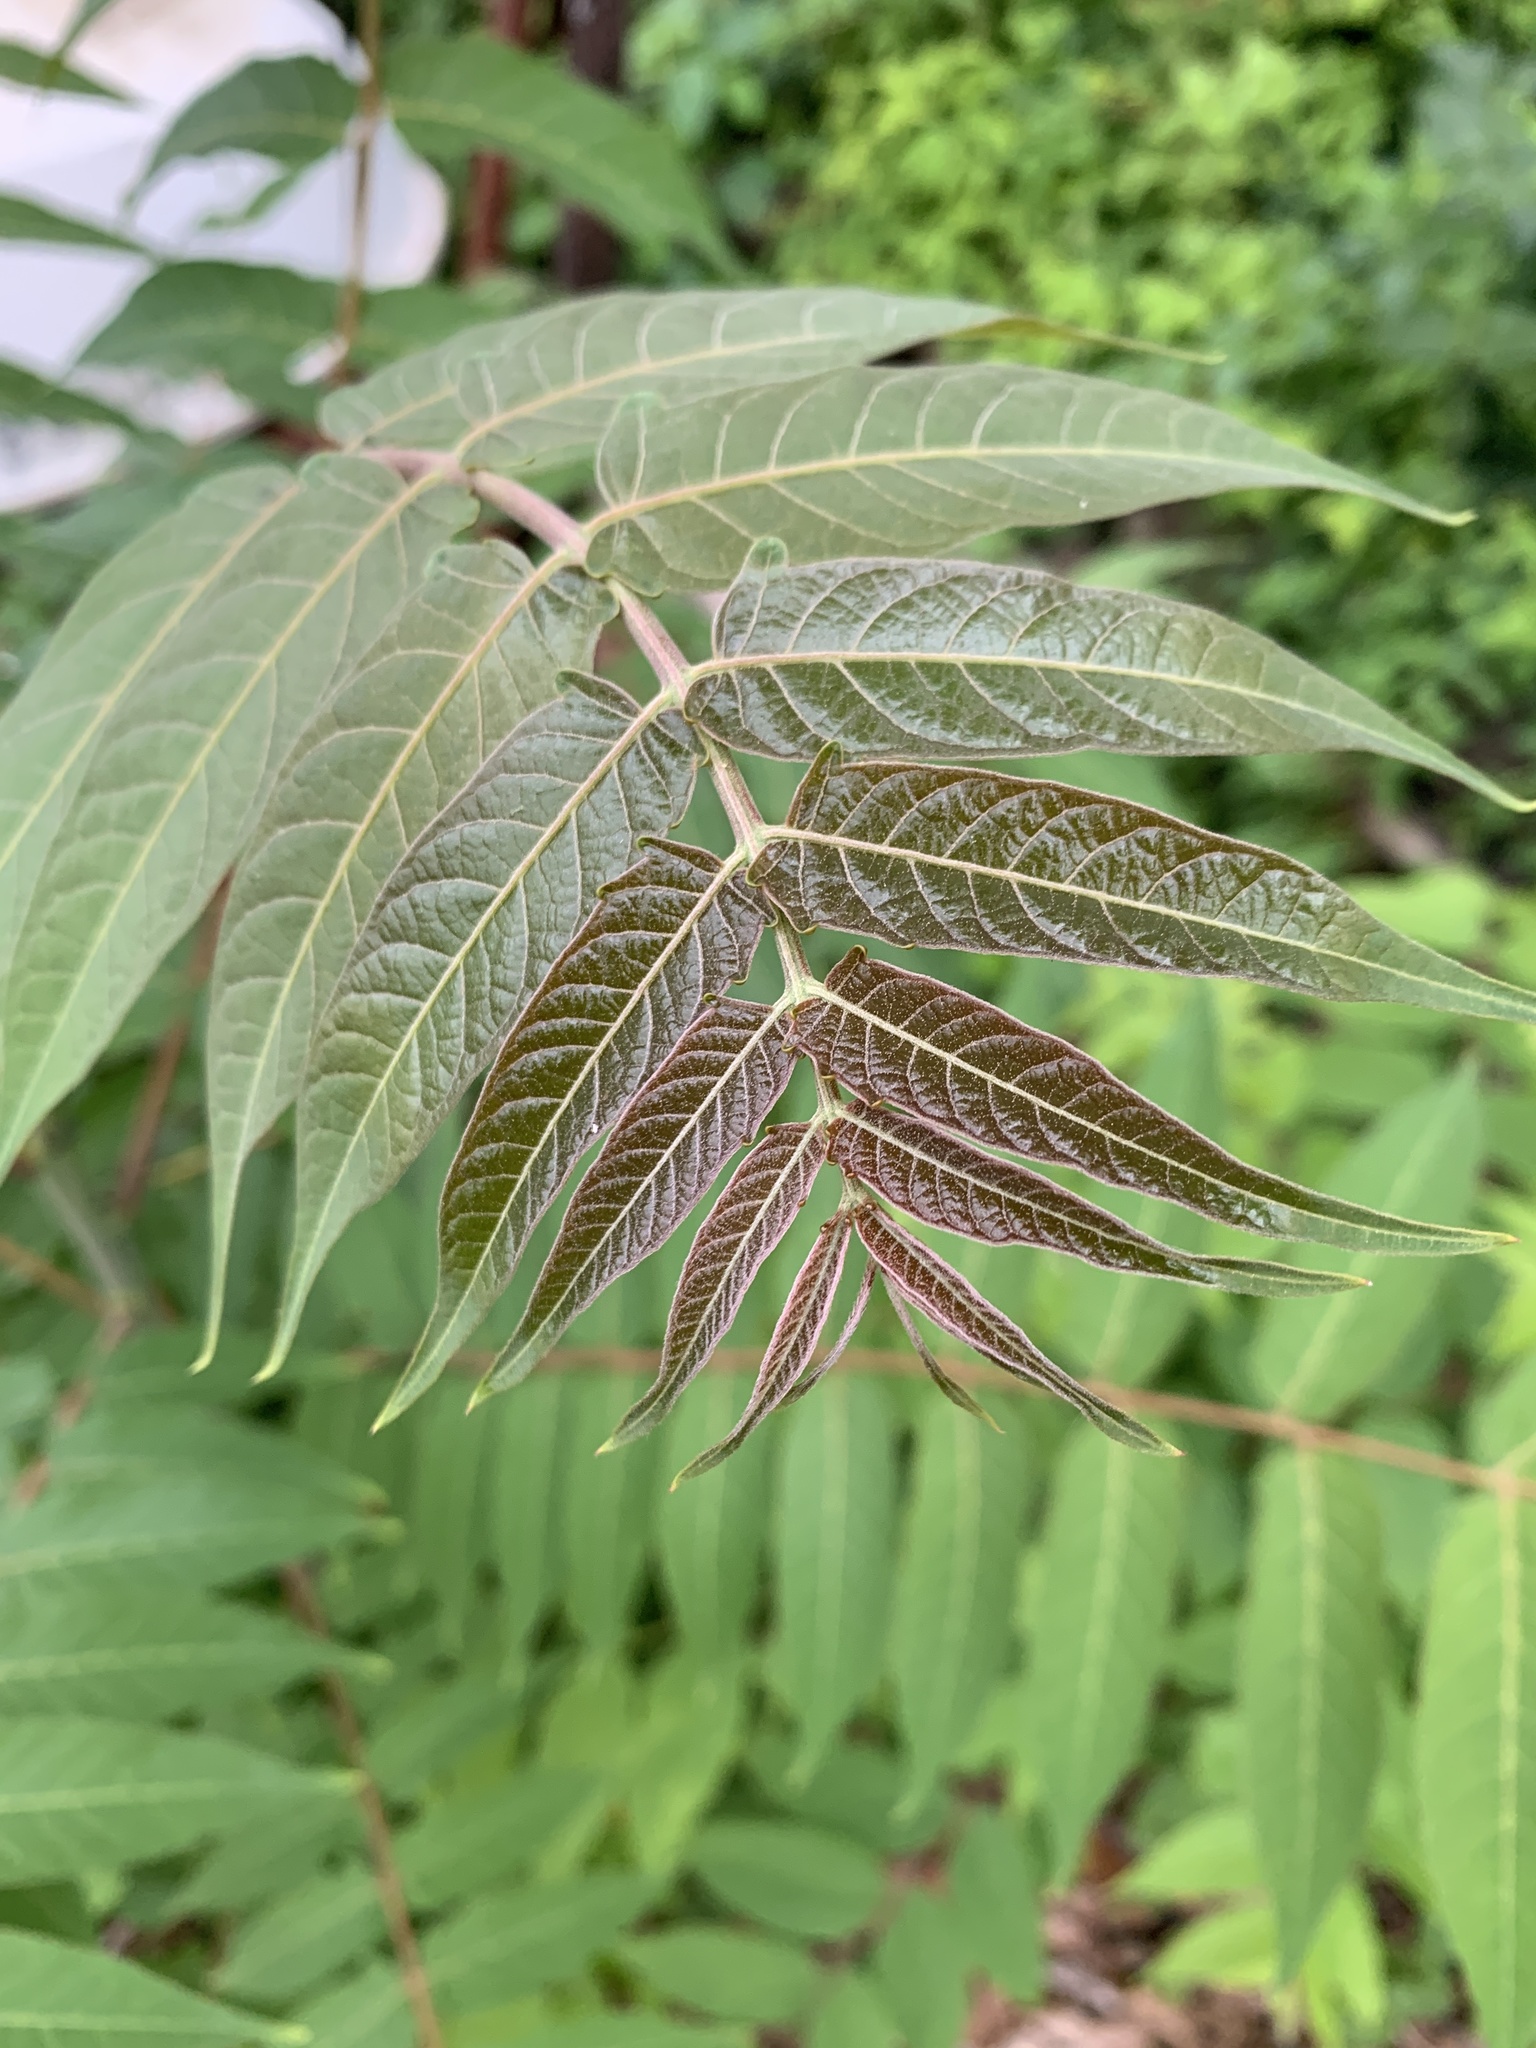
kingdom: Plantae
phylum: Tracheophyta
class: Magnoliopsida
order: Sapindales
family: Simaroubaceae
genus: Ailanthus
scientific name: Ailanthus altissima
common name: Tree-of-heaven
